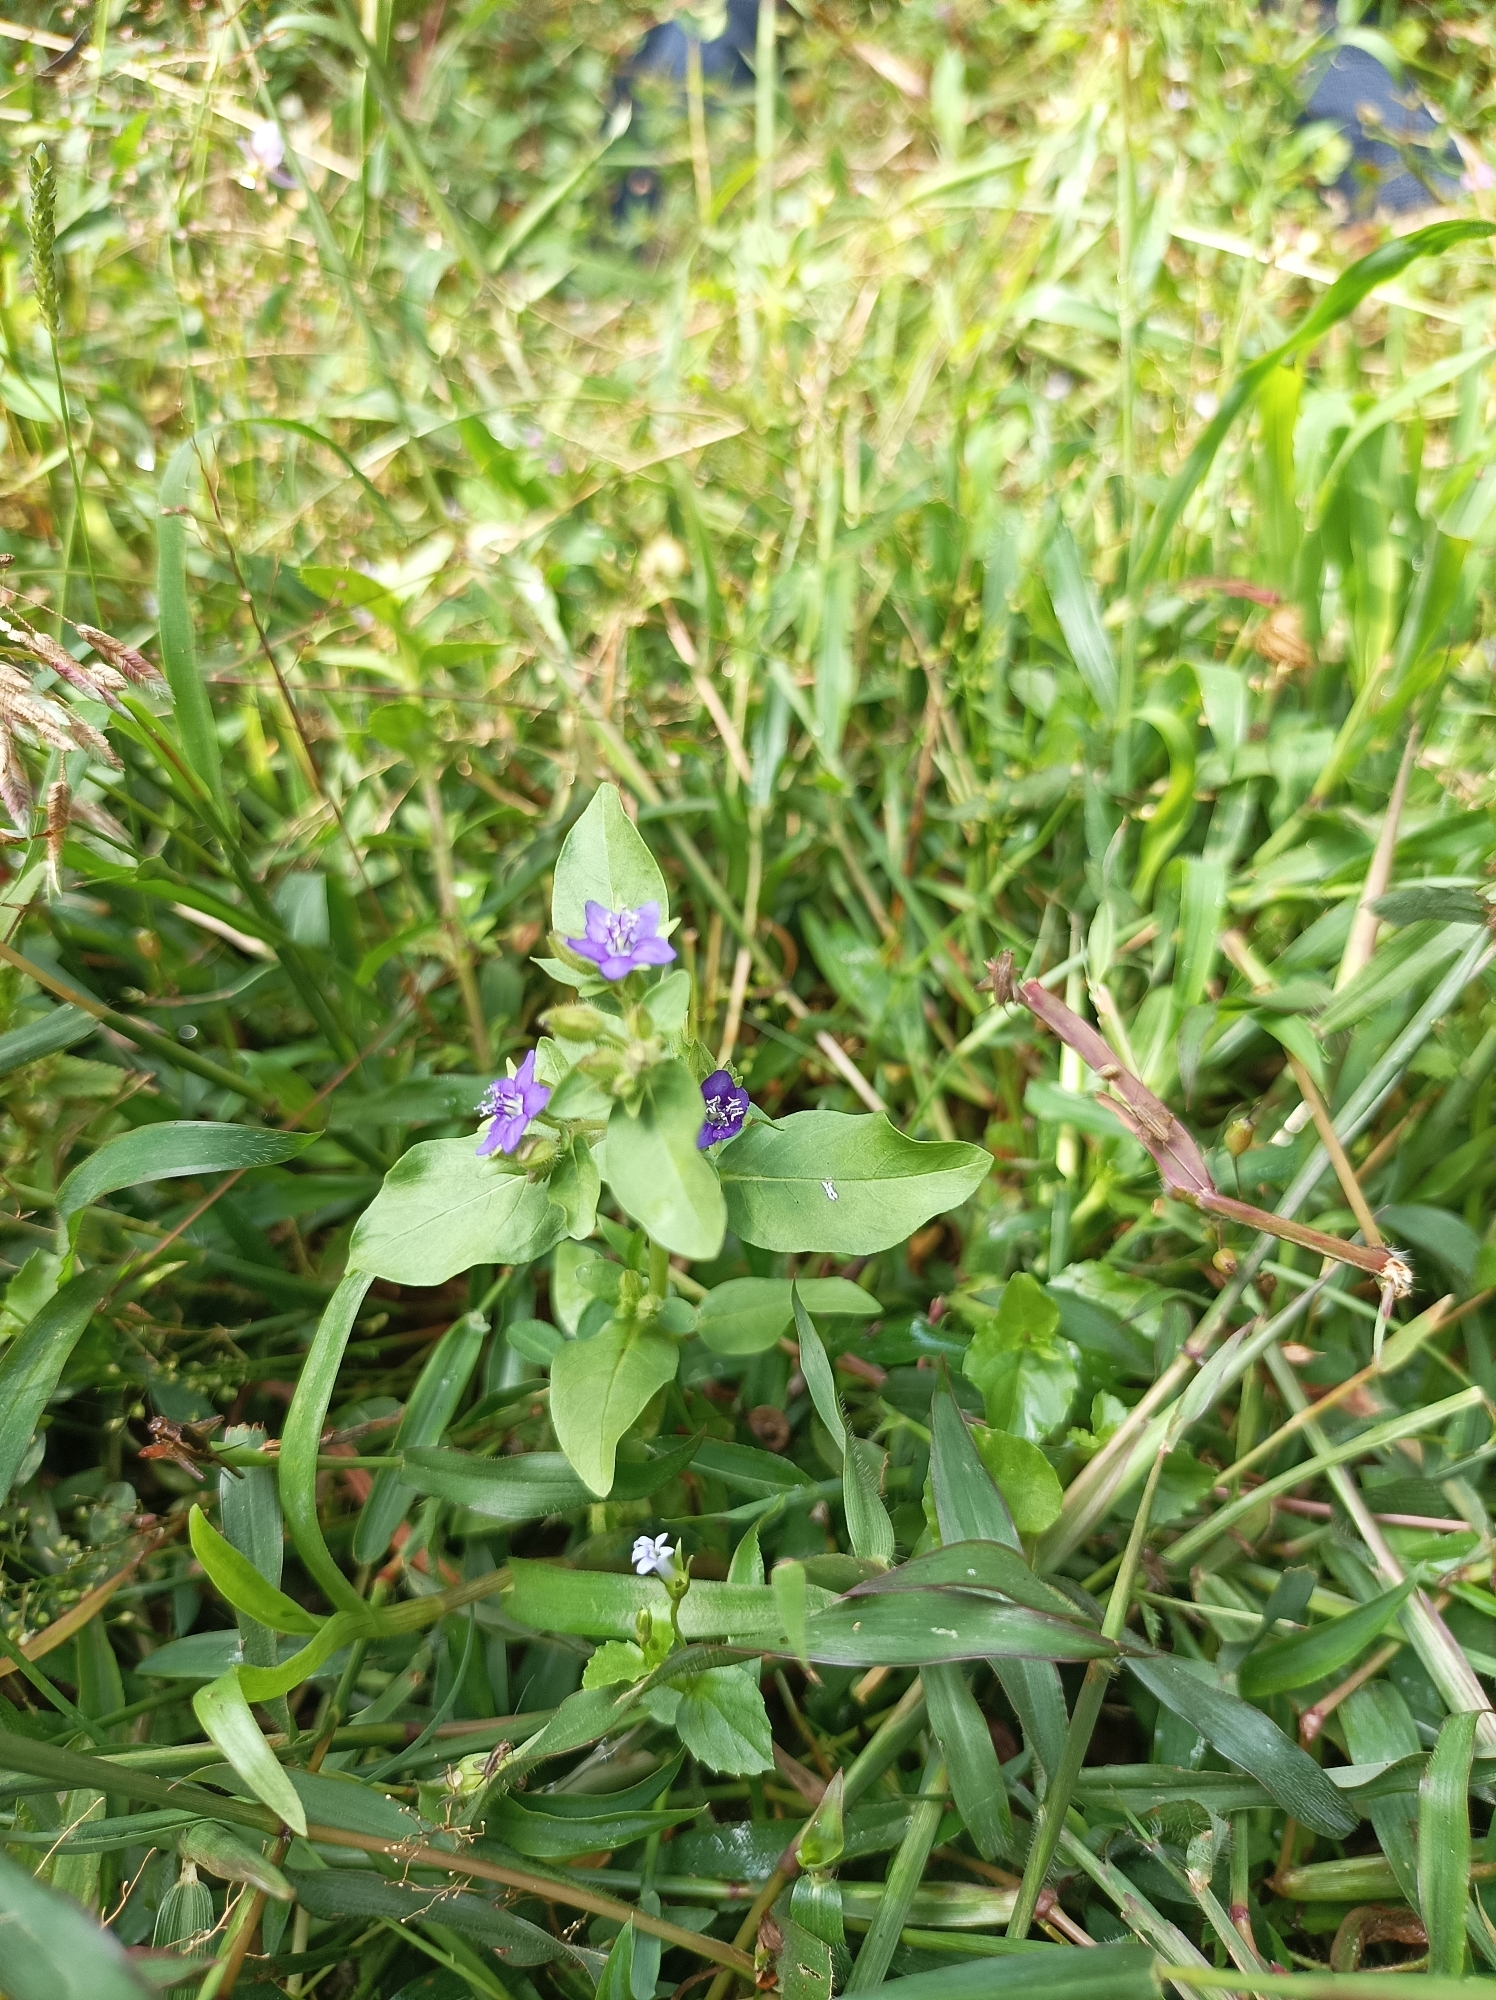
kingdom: Plantae
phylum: Tracheophyta
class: Magnoliopsida
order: Solanales
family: Hydroleaceae
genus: Hydrolea
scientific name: Hydrolea zeylanica
